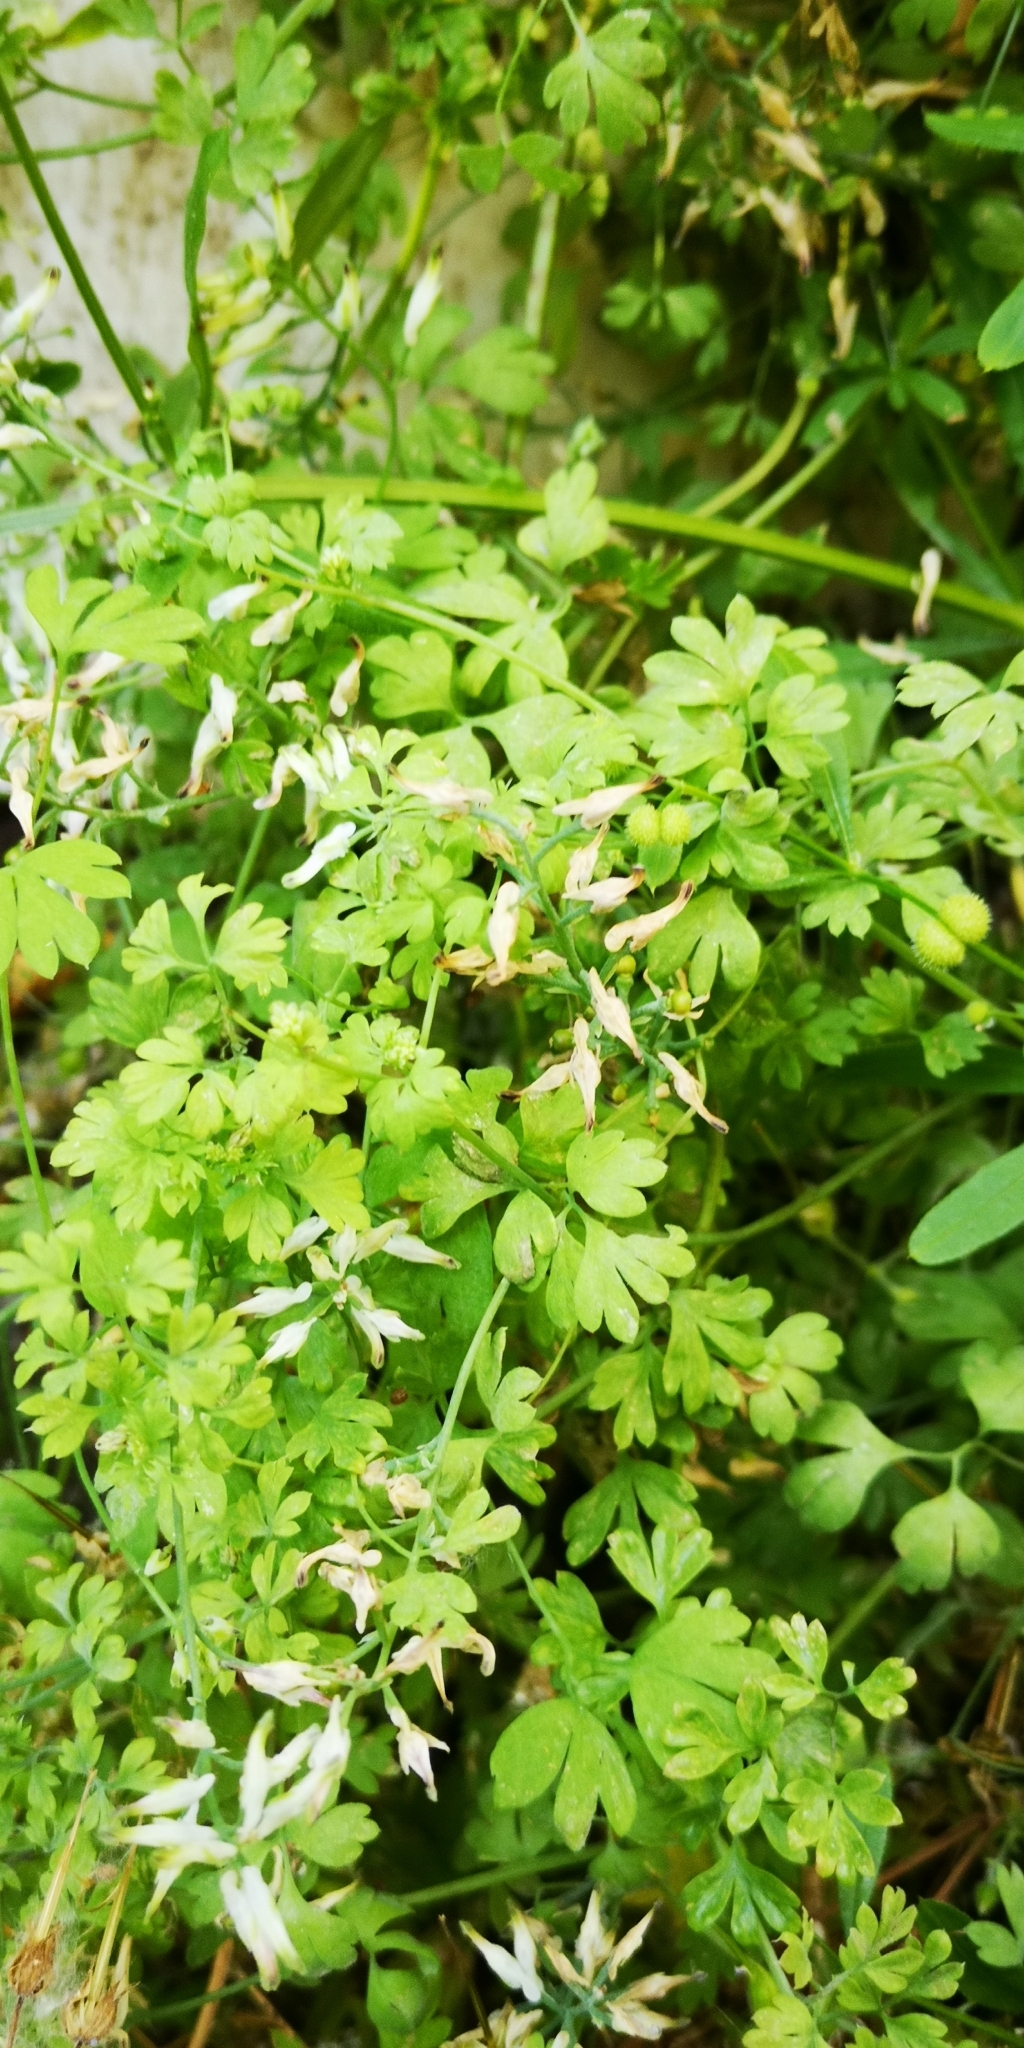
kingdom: Plantae
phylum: Tracheophyta
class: Magnoliopsida
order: Ranunculales
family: Papaveraceae
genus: Fumaria
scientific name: Fumaria capreolata
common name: White ramping-fumitory
